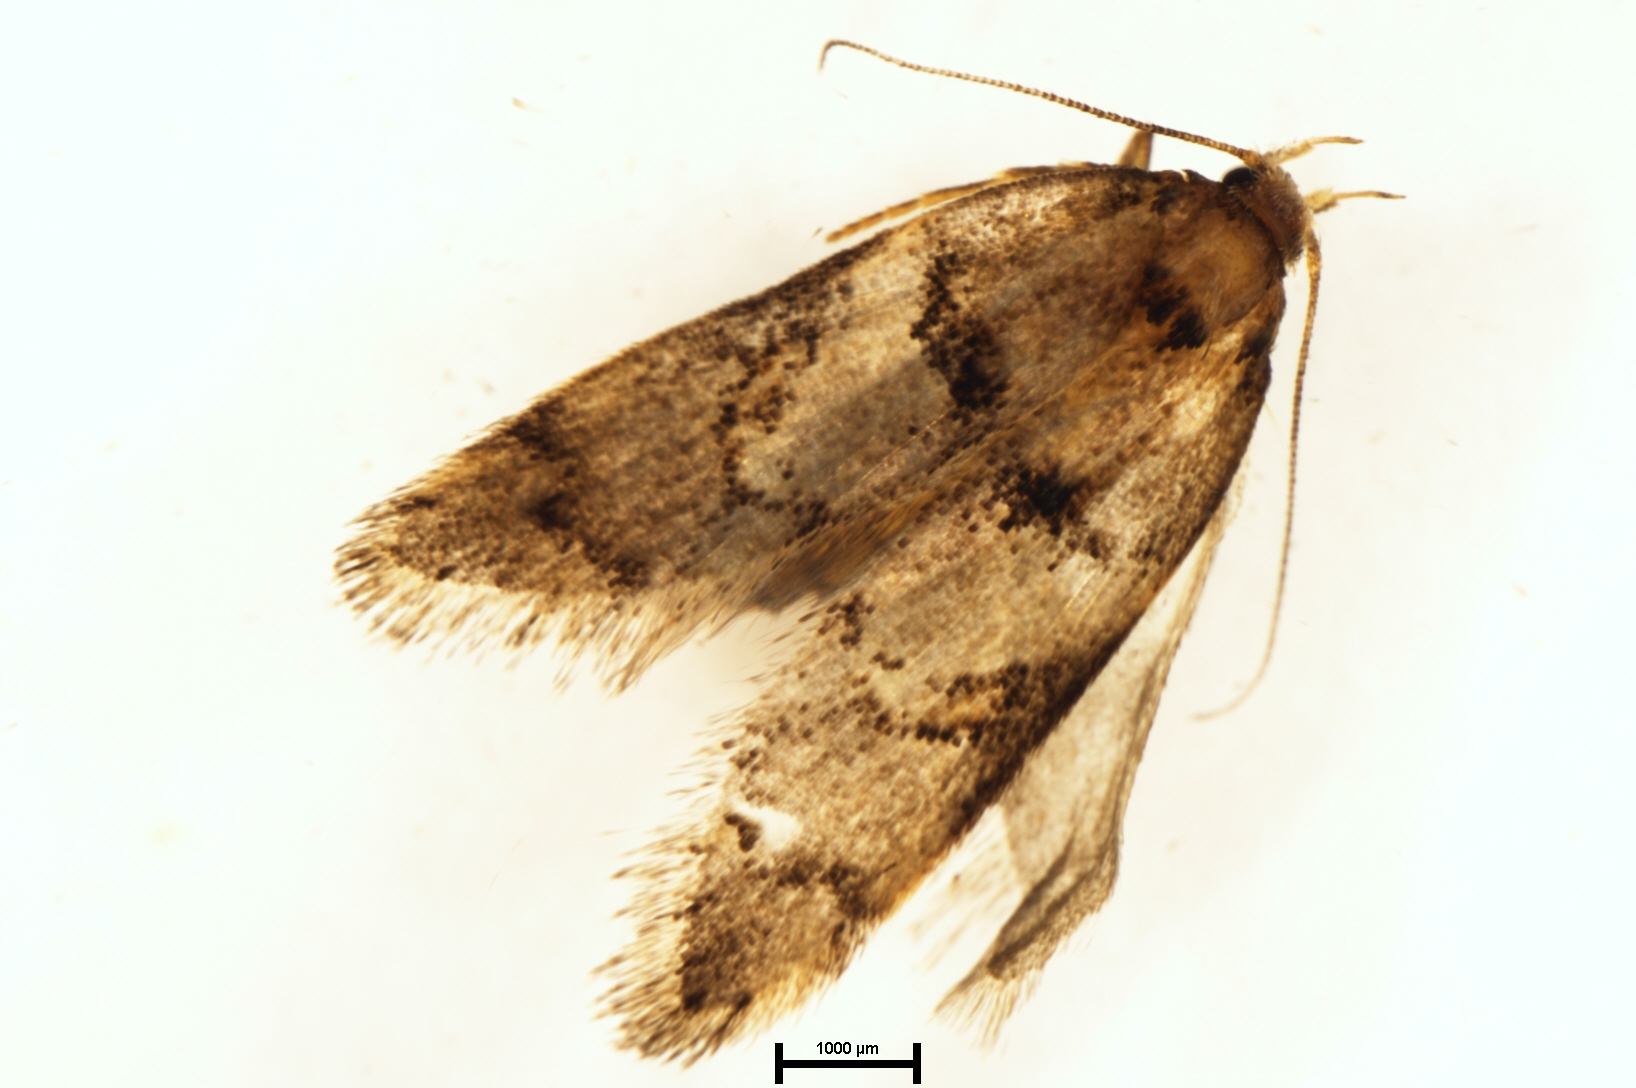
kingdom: Animalia
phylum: Arthropoda
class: Insecta
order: Lepidoptera
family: Oecophoridae
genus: Trachypepla
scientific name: Trachypepla contritella
